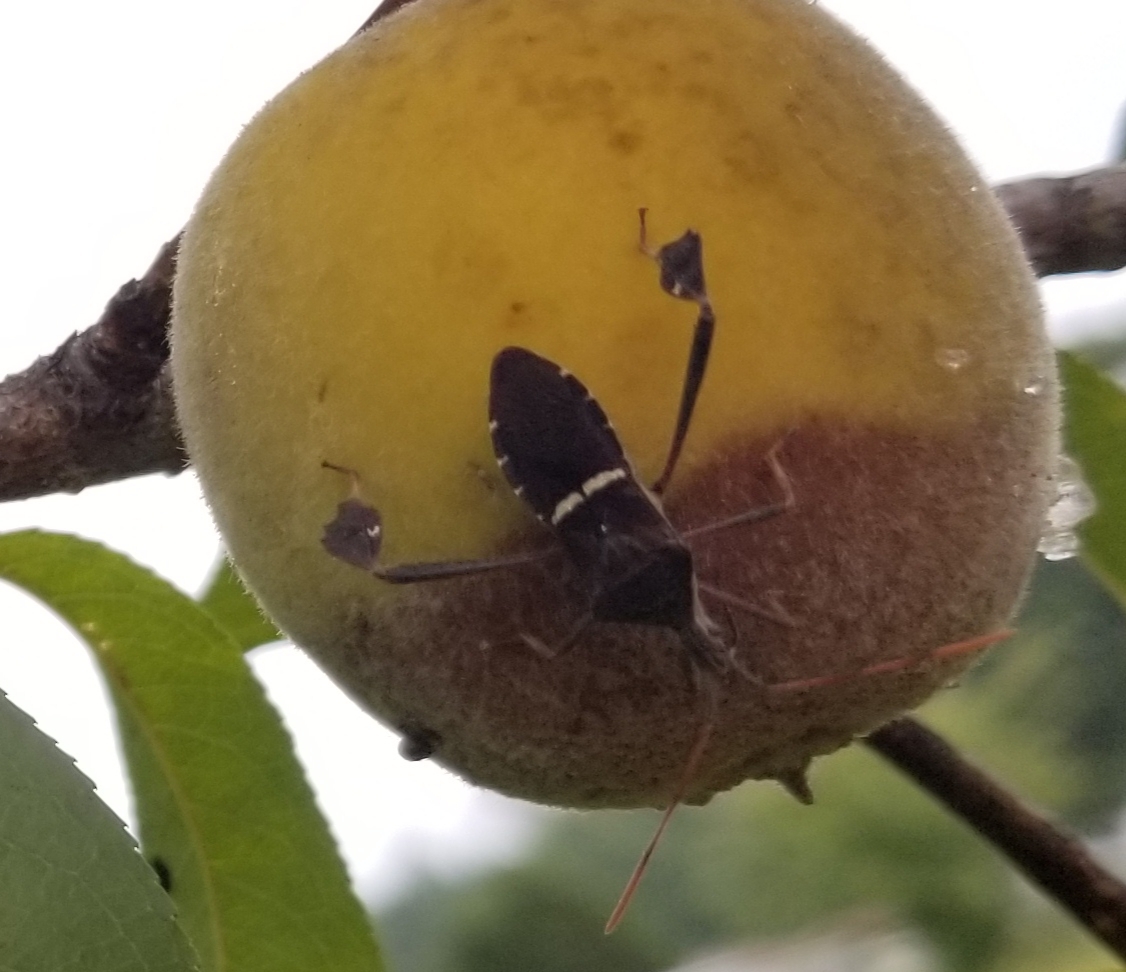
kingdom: Animalia
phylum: Arthropoda
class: Insecta
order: Hemiptera
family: Coreidae
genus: Leptoglossus
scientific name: Leptoglossus phyllopus
